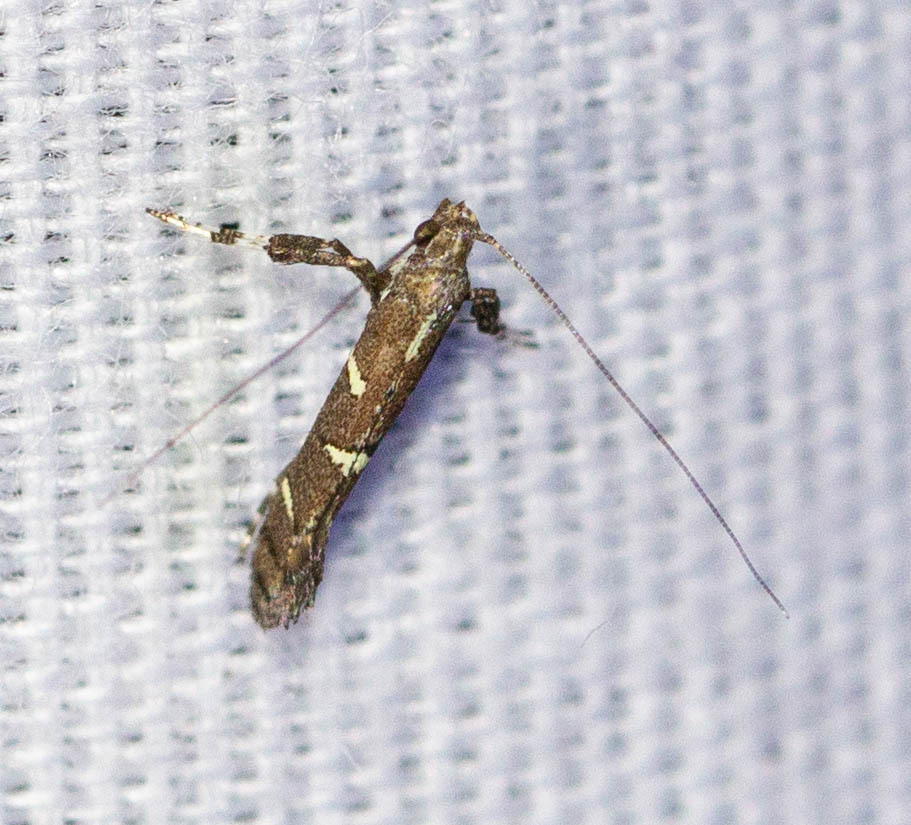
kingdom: Animalia
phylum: Arthropoda
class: Insecta
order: Lepidoptera
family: Gracillariidae
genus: Caloptilia
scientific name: Caloptilia triadicae
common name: Tallow leaf roller
